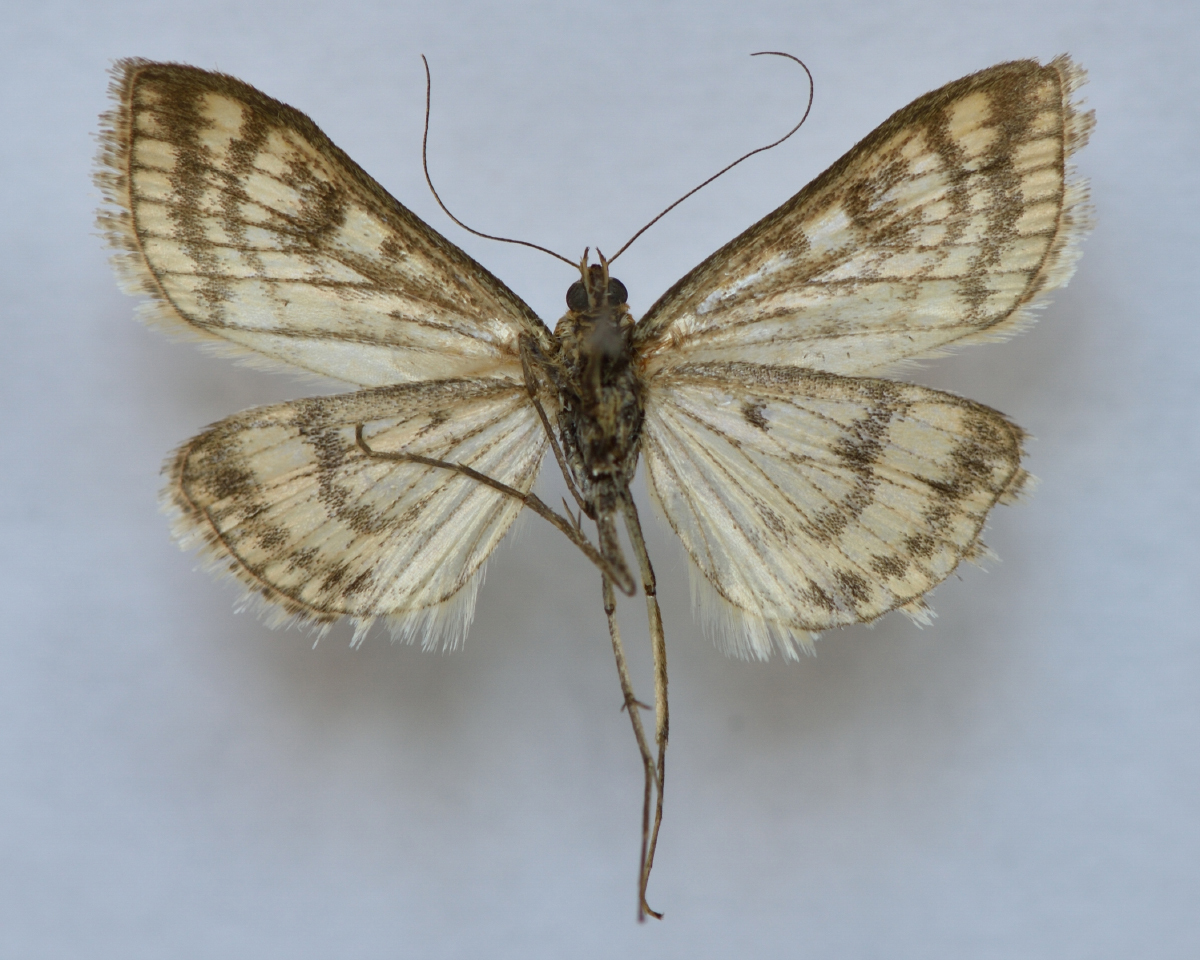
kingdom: Animalia
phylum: Arthropoda
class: Insecta
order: Lepidoptera
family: Crambidae
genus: Sitochroa
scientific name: Sitochroa verticalis
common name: Lesser pearl
